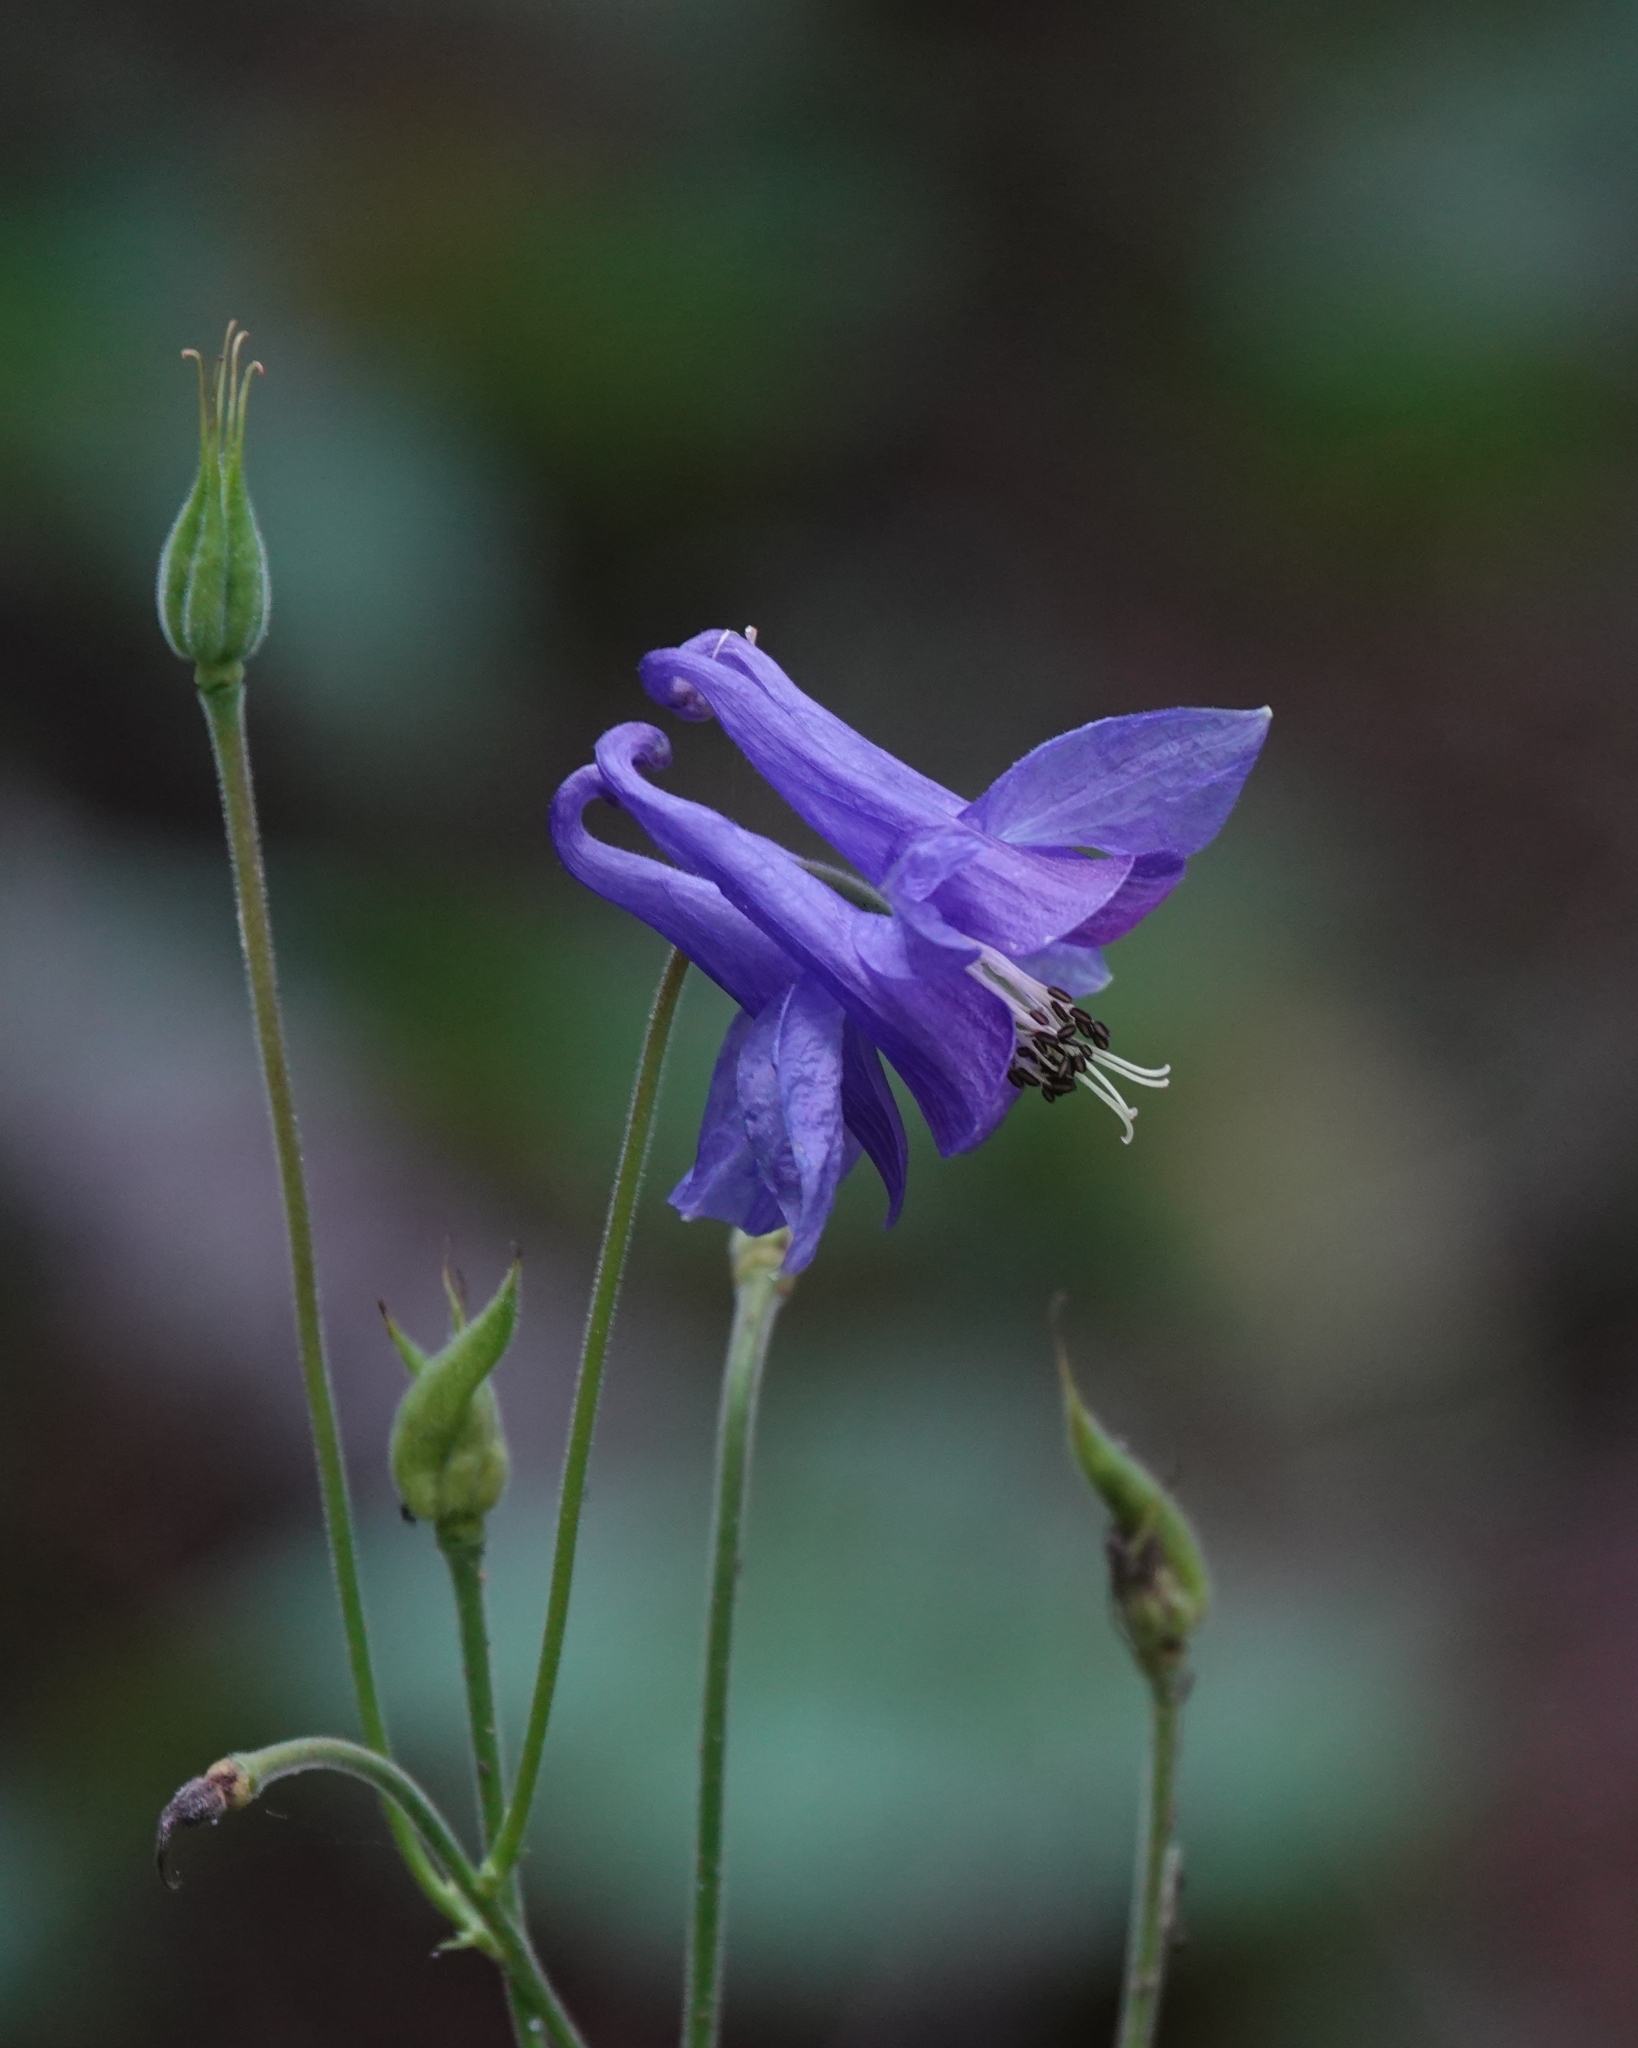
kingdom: Plantae
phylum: Tracheophyta
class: Magnoliopsida
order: Ranunculales
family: Ranunculaceae
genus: Aquilegia
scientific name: Aquilegia vulgaris
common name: Columbine
